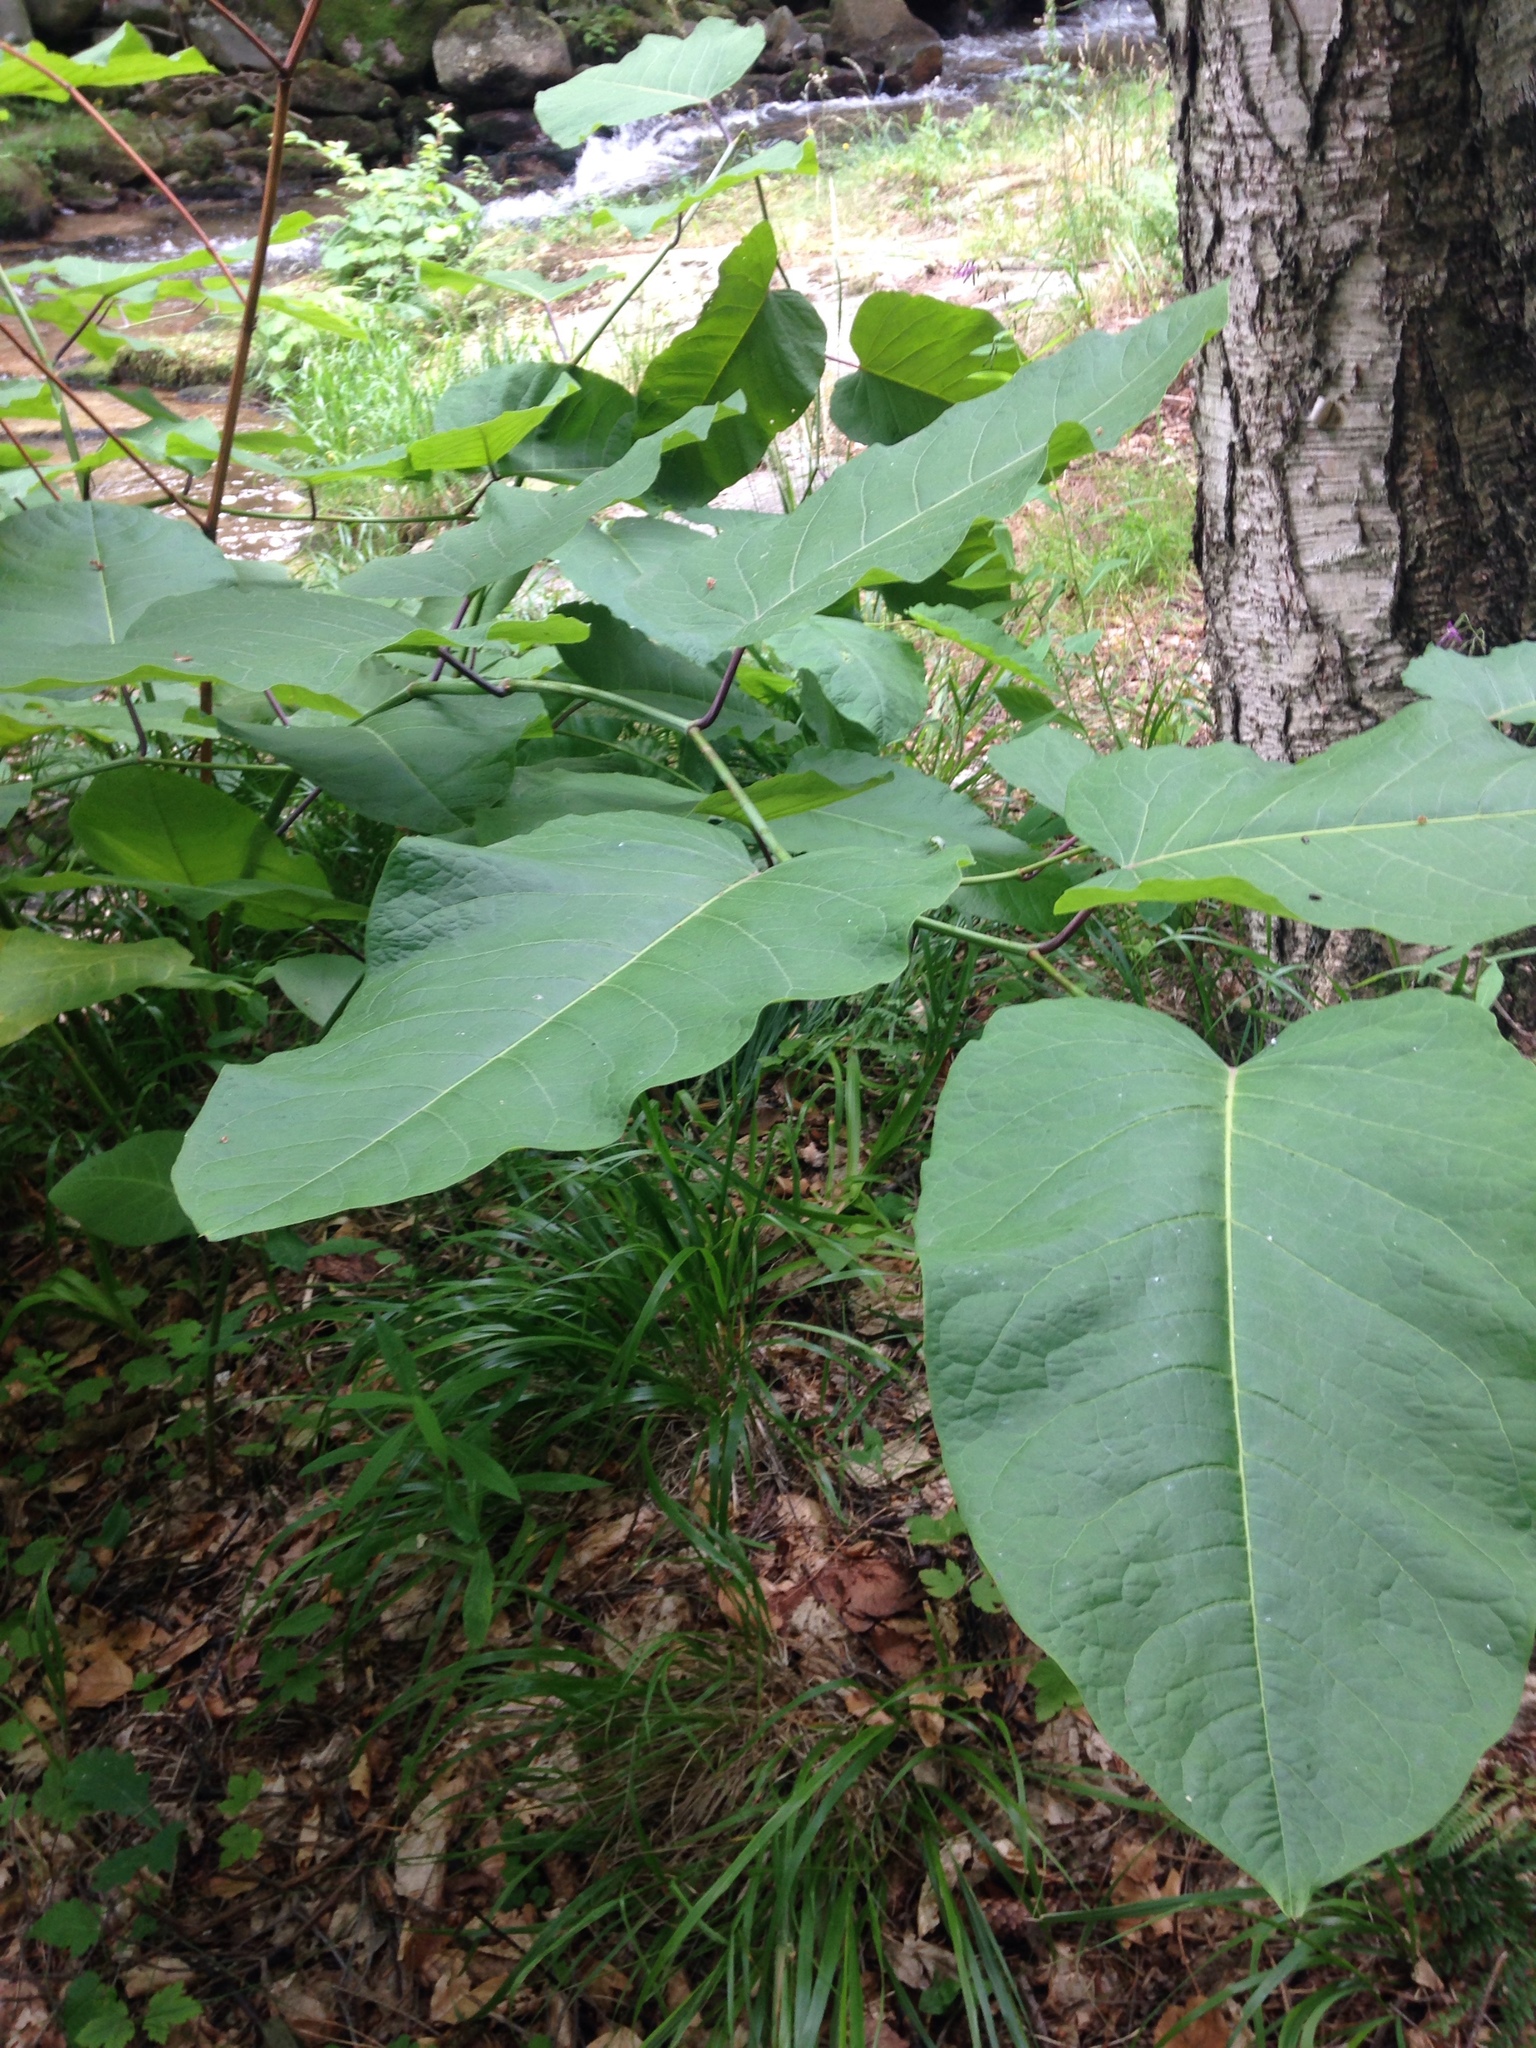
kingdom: Plantae
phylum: Tracheophyta
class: Magnoliopsida
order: Caryophyllales
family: Polygonaceae
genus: Reynoutria
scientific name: Reynoutria sachalinensis
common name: Giant knotweed
